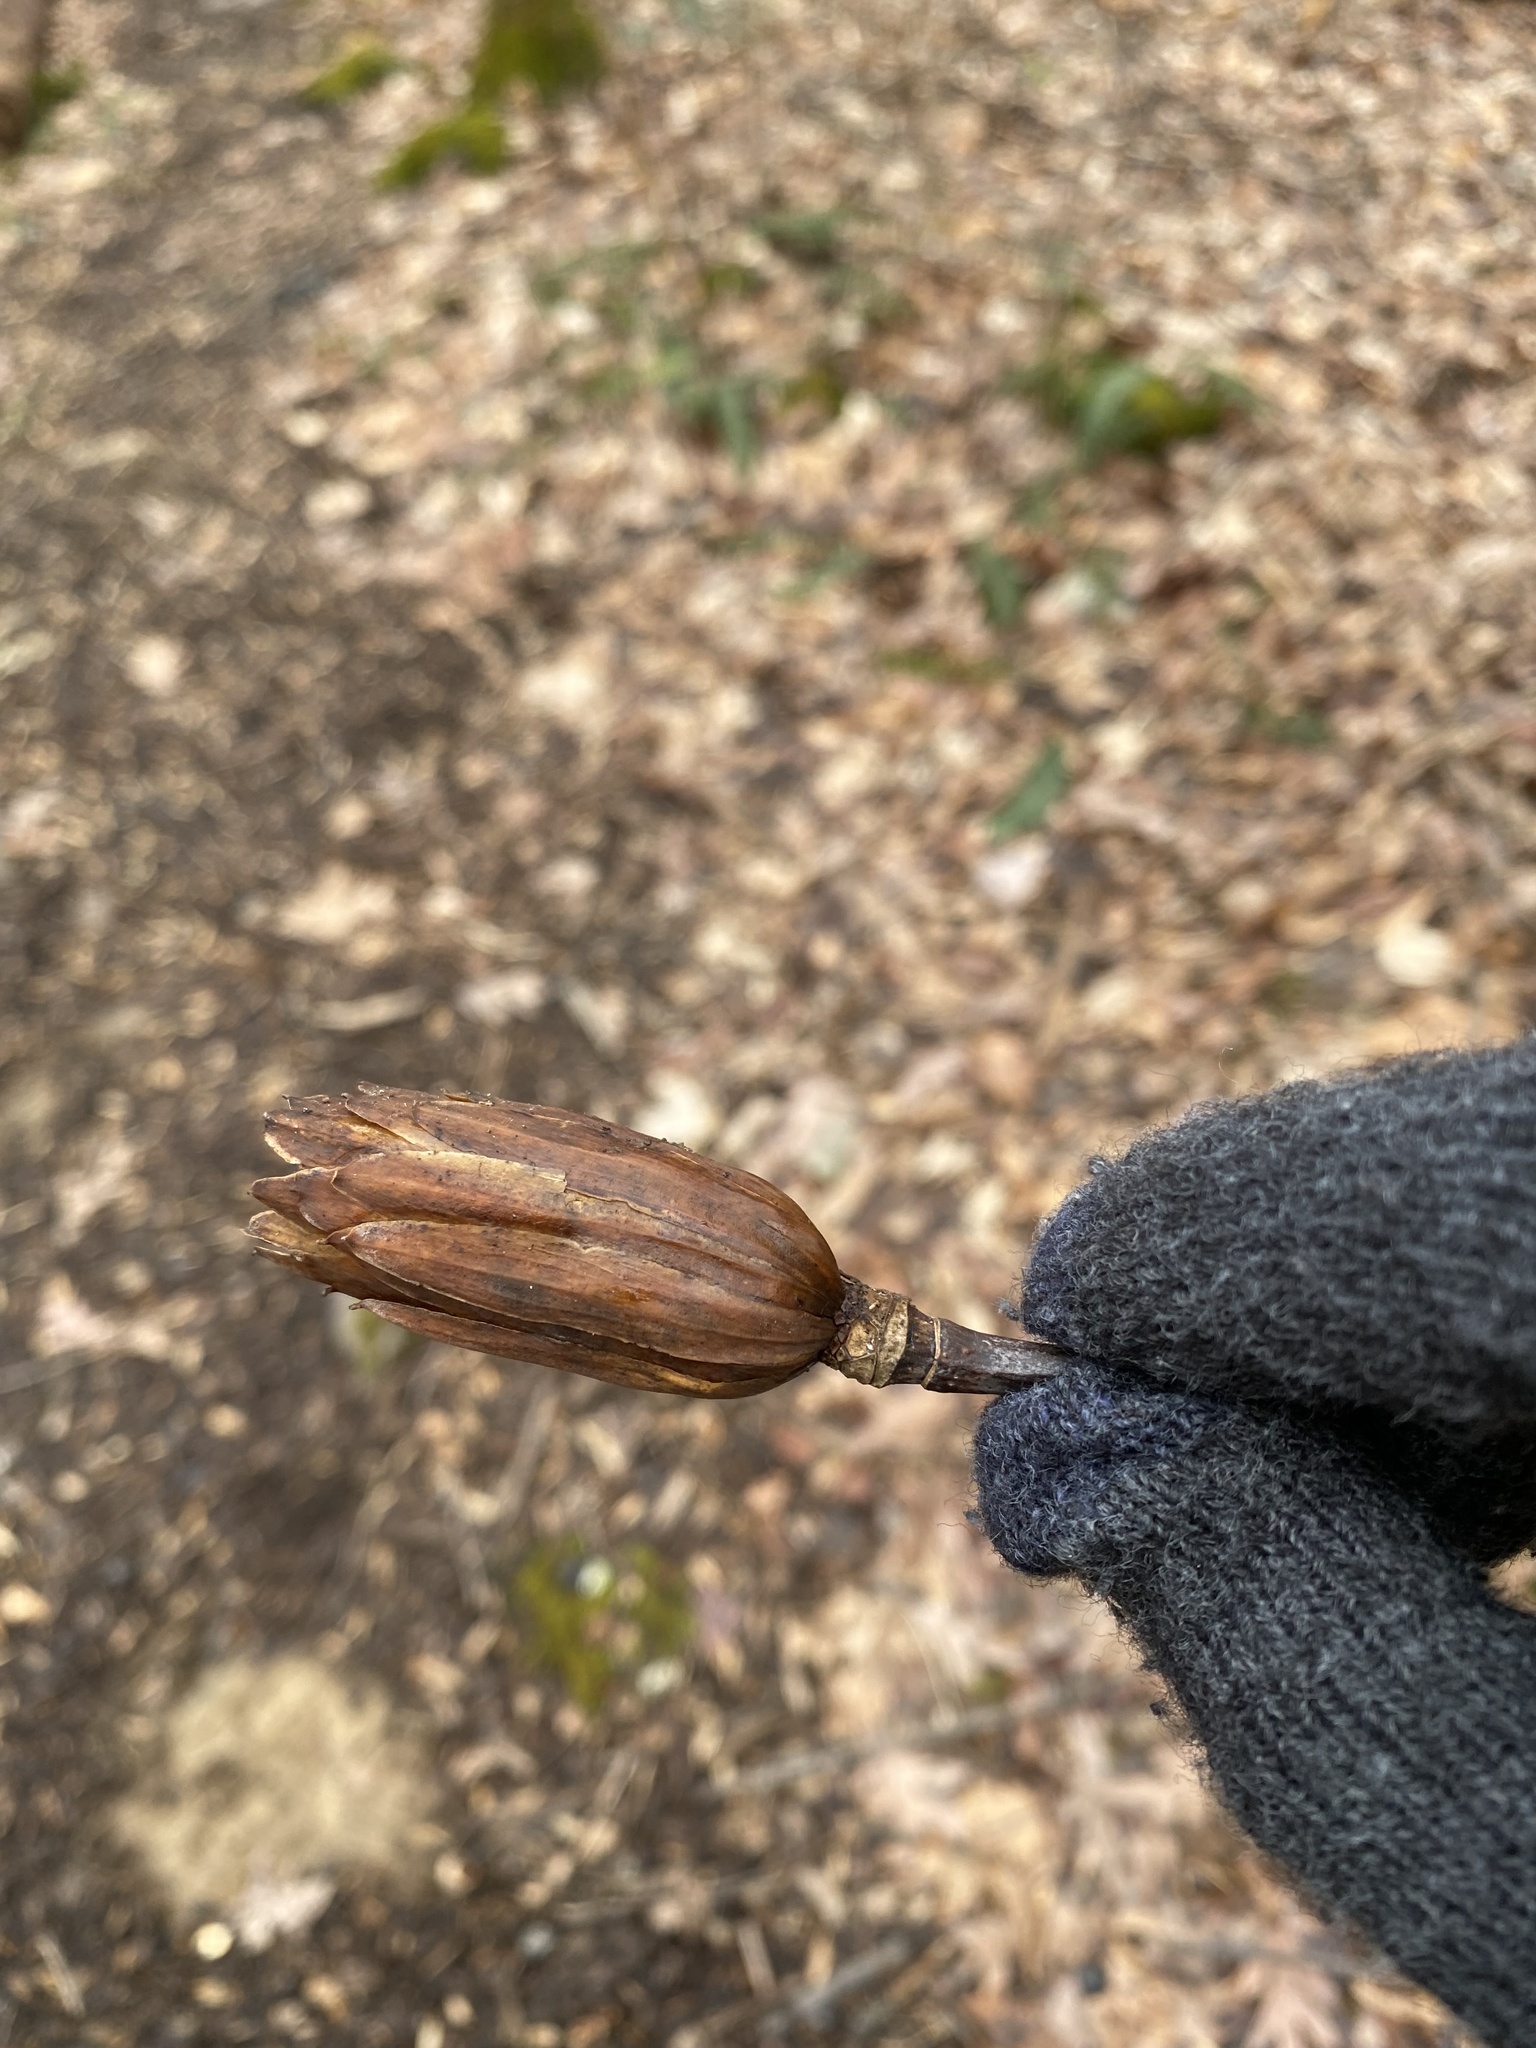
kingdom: Plantae
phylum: Tracheophyta
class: Magnoliopsida
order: Magnoliales
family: Magnoliaceae
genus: Liriodendron
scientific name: Liriodendron tulipifera
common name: Tulip tree
